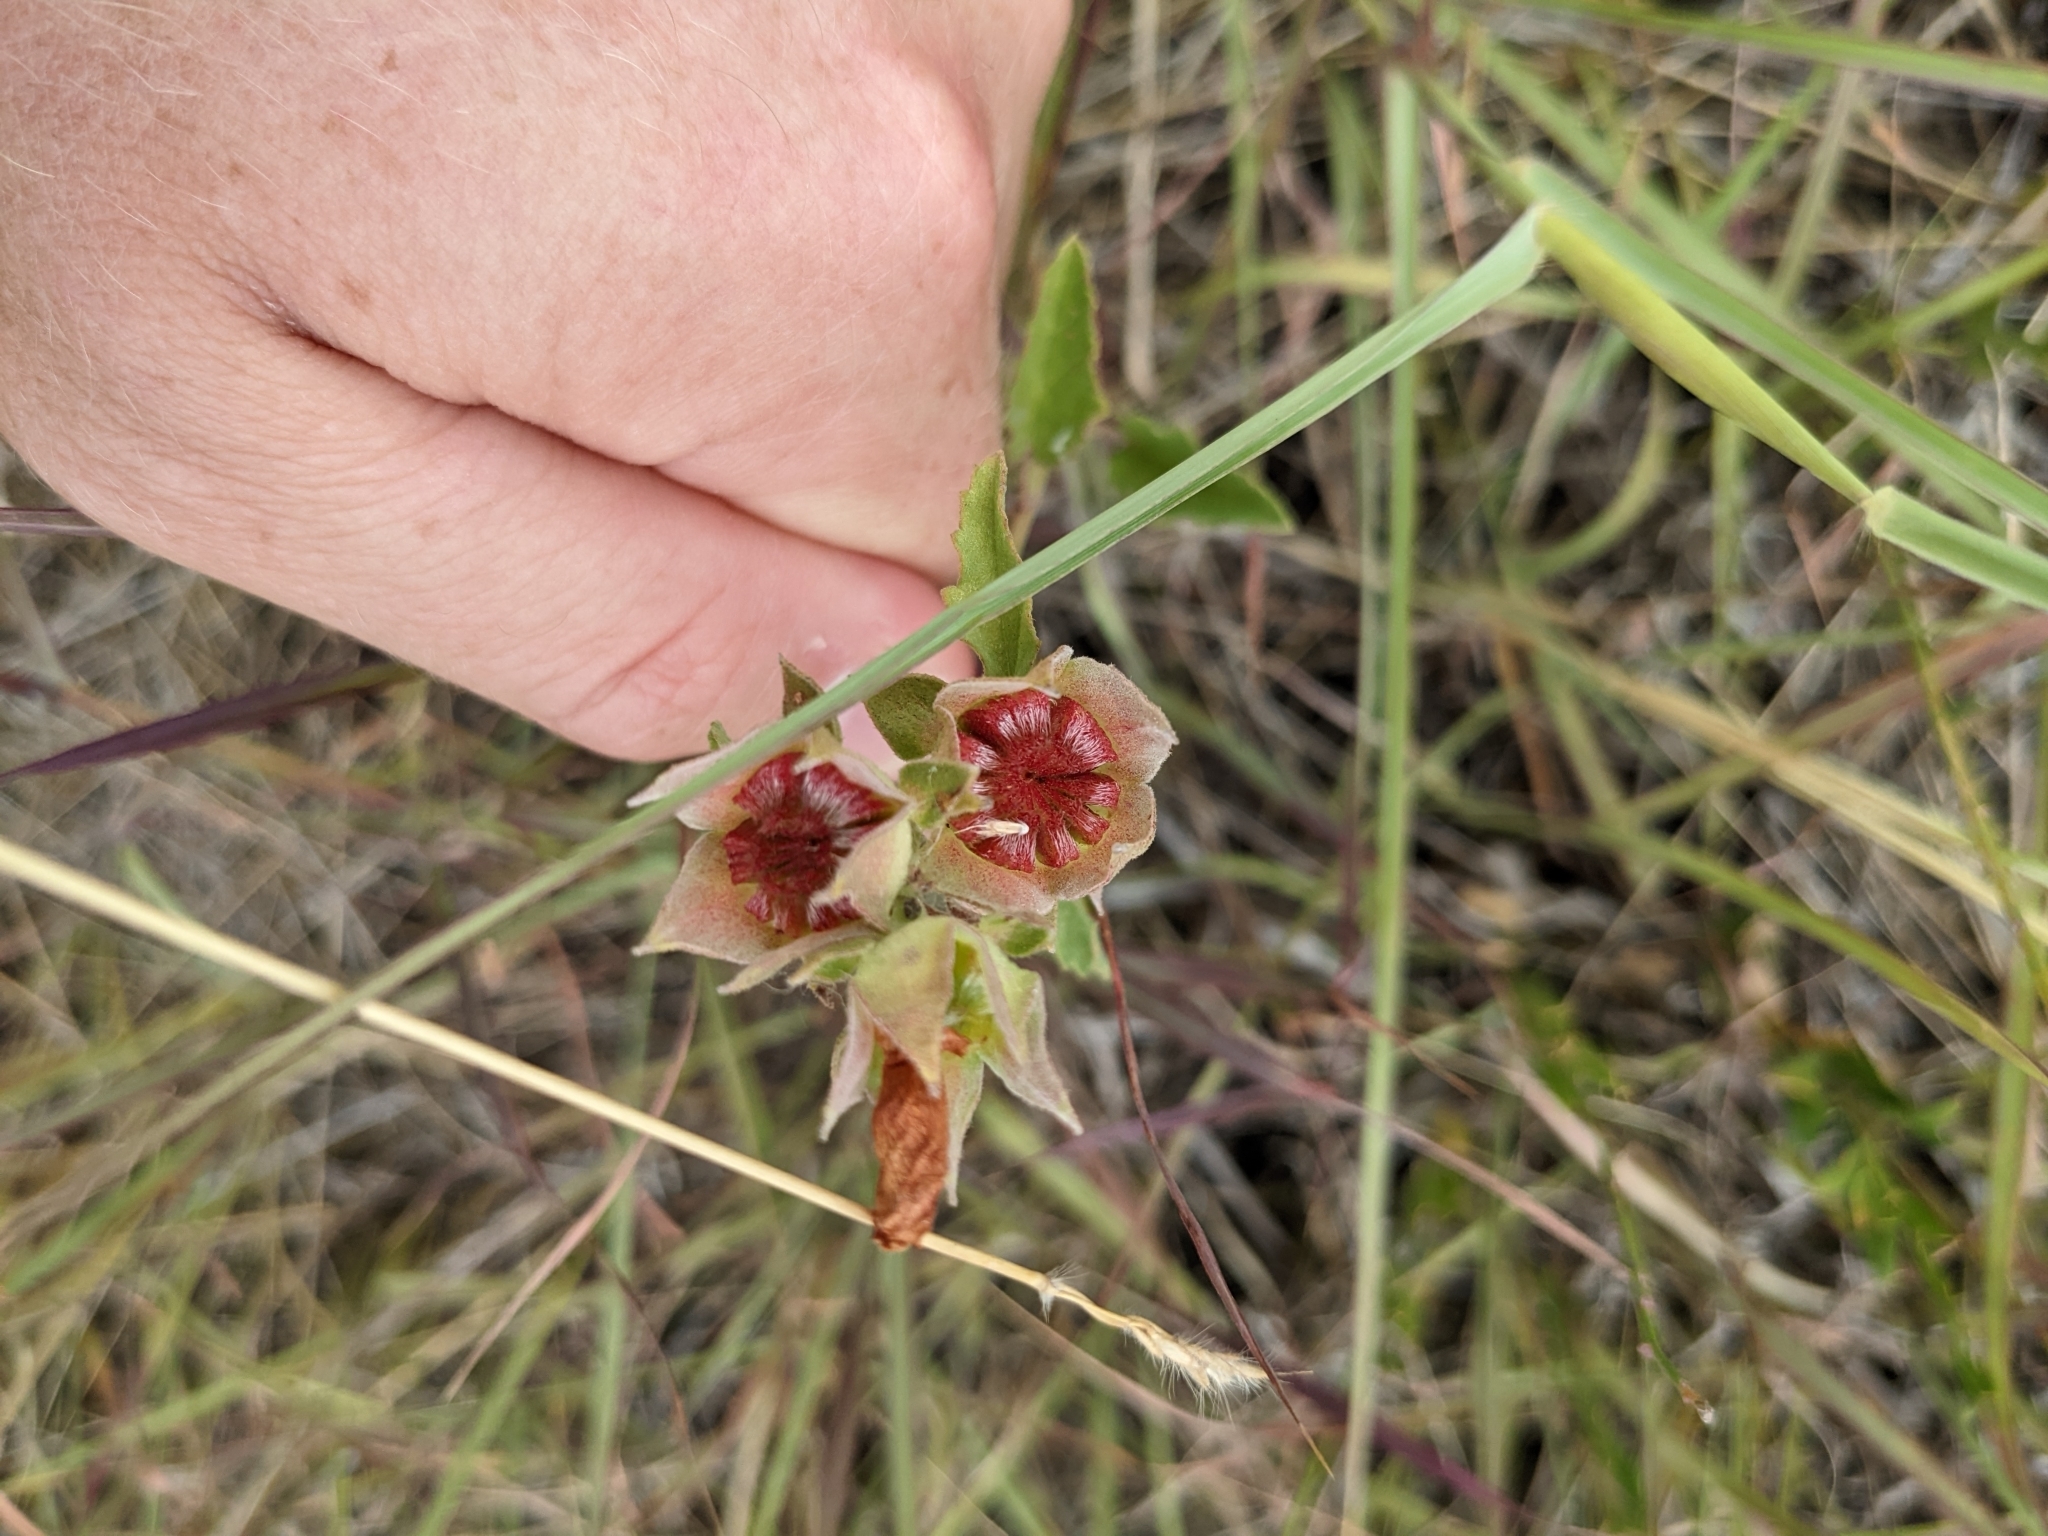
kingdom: Plantae
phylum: Tracheophyta
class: Magnoliopsida
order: Malvales
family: Malvaceae
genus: Malvastrum
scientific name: Malvastrum aurantiacum
